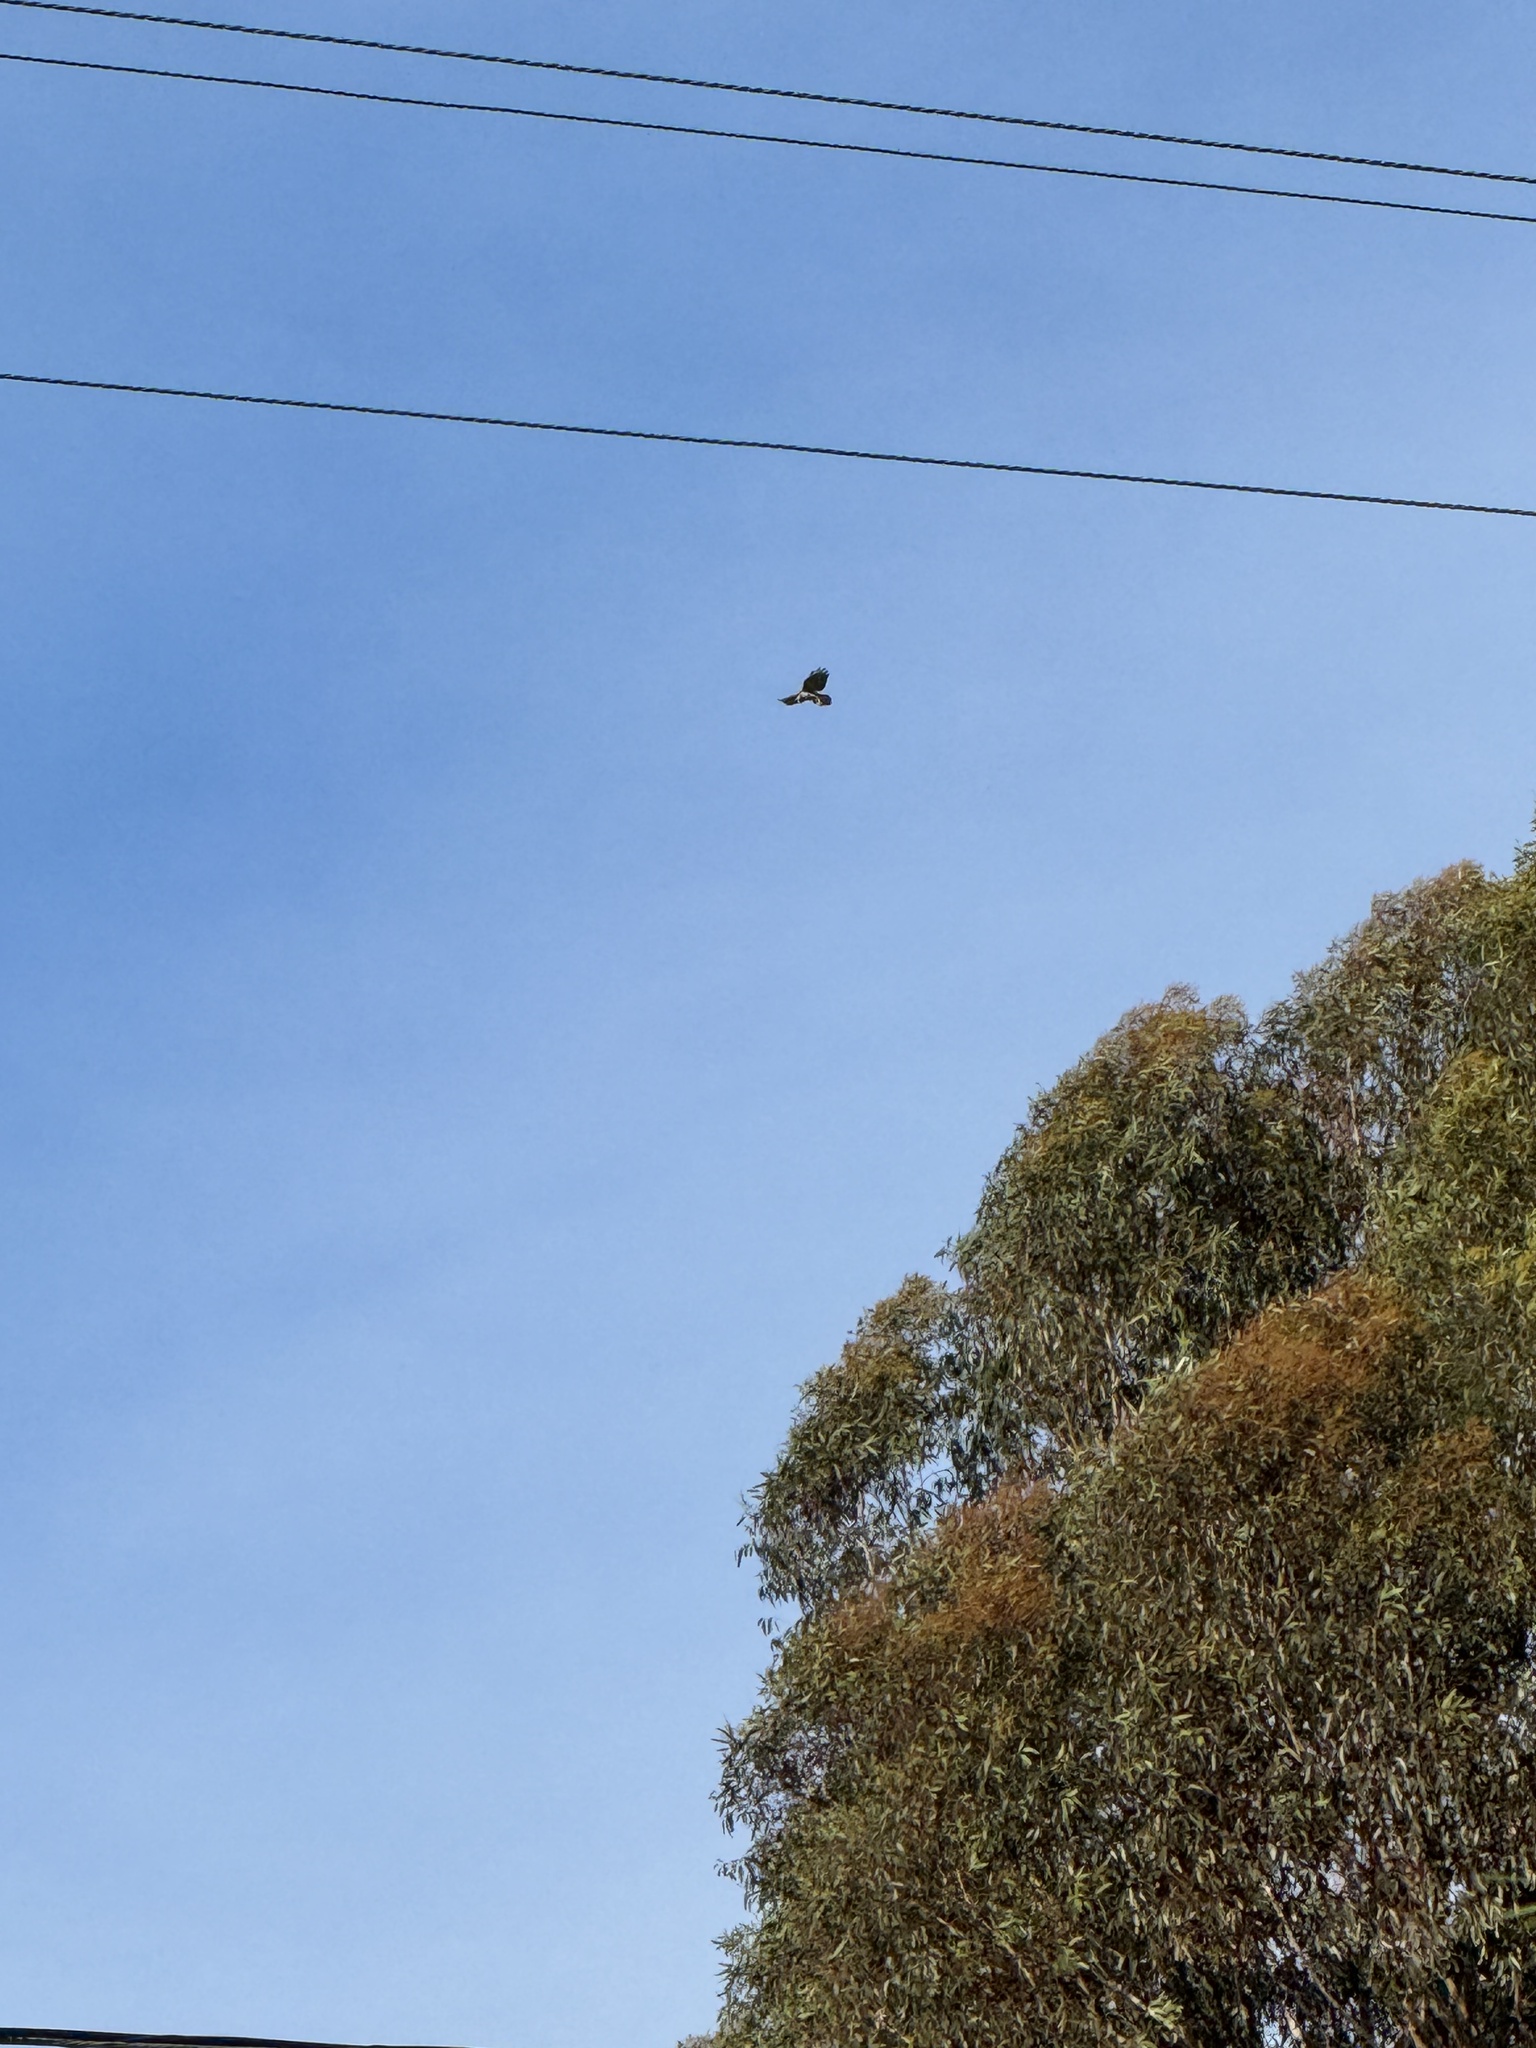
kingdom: Animalia
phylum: Chordata
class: Aves
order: Accipitriformes
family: Accipitridae
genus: Buteo
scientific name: Buteo jamaicensis
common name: Red-tailed hawk
